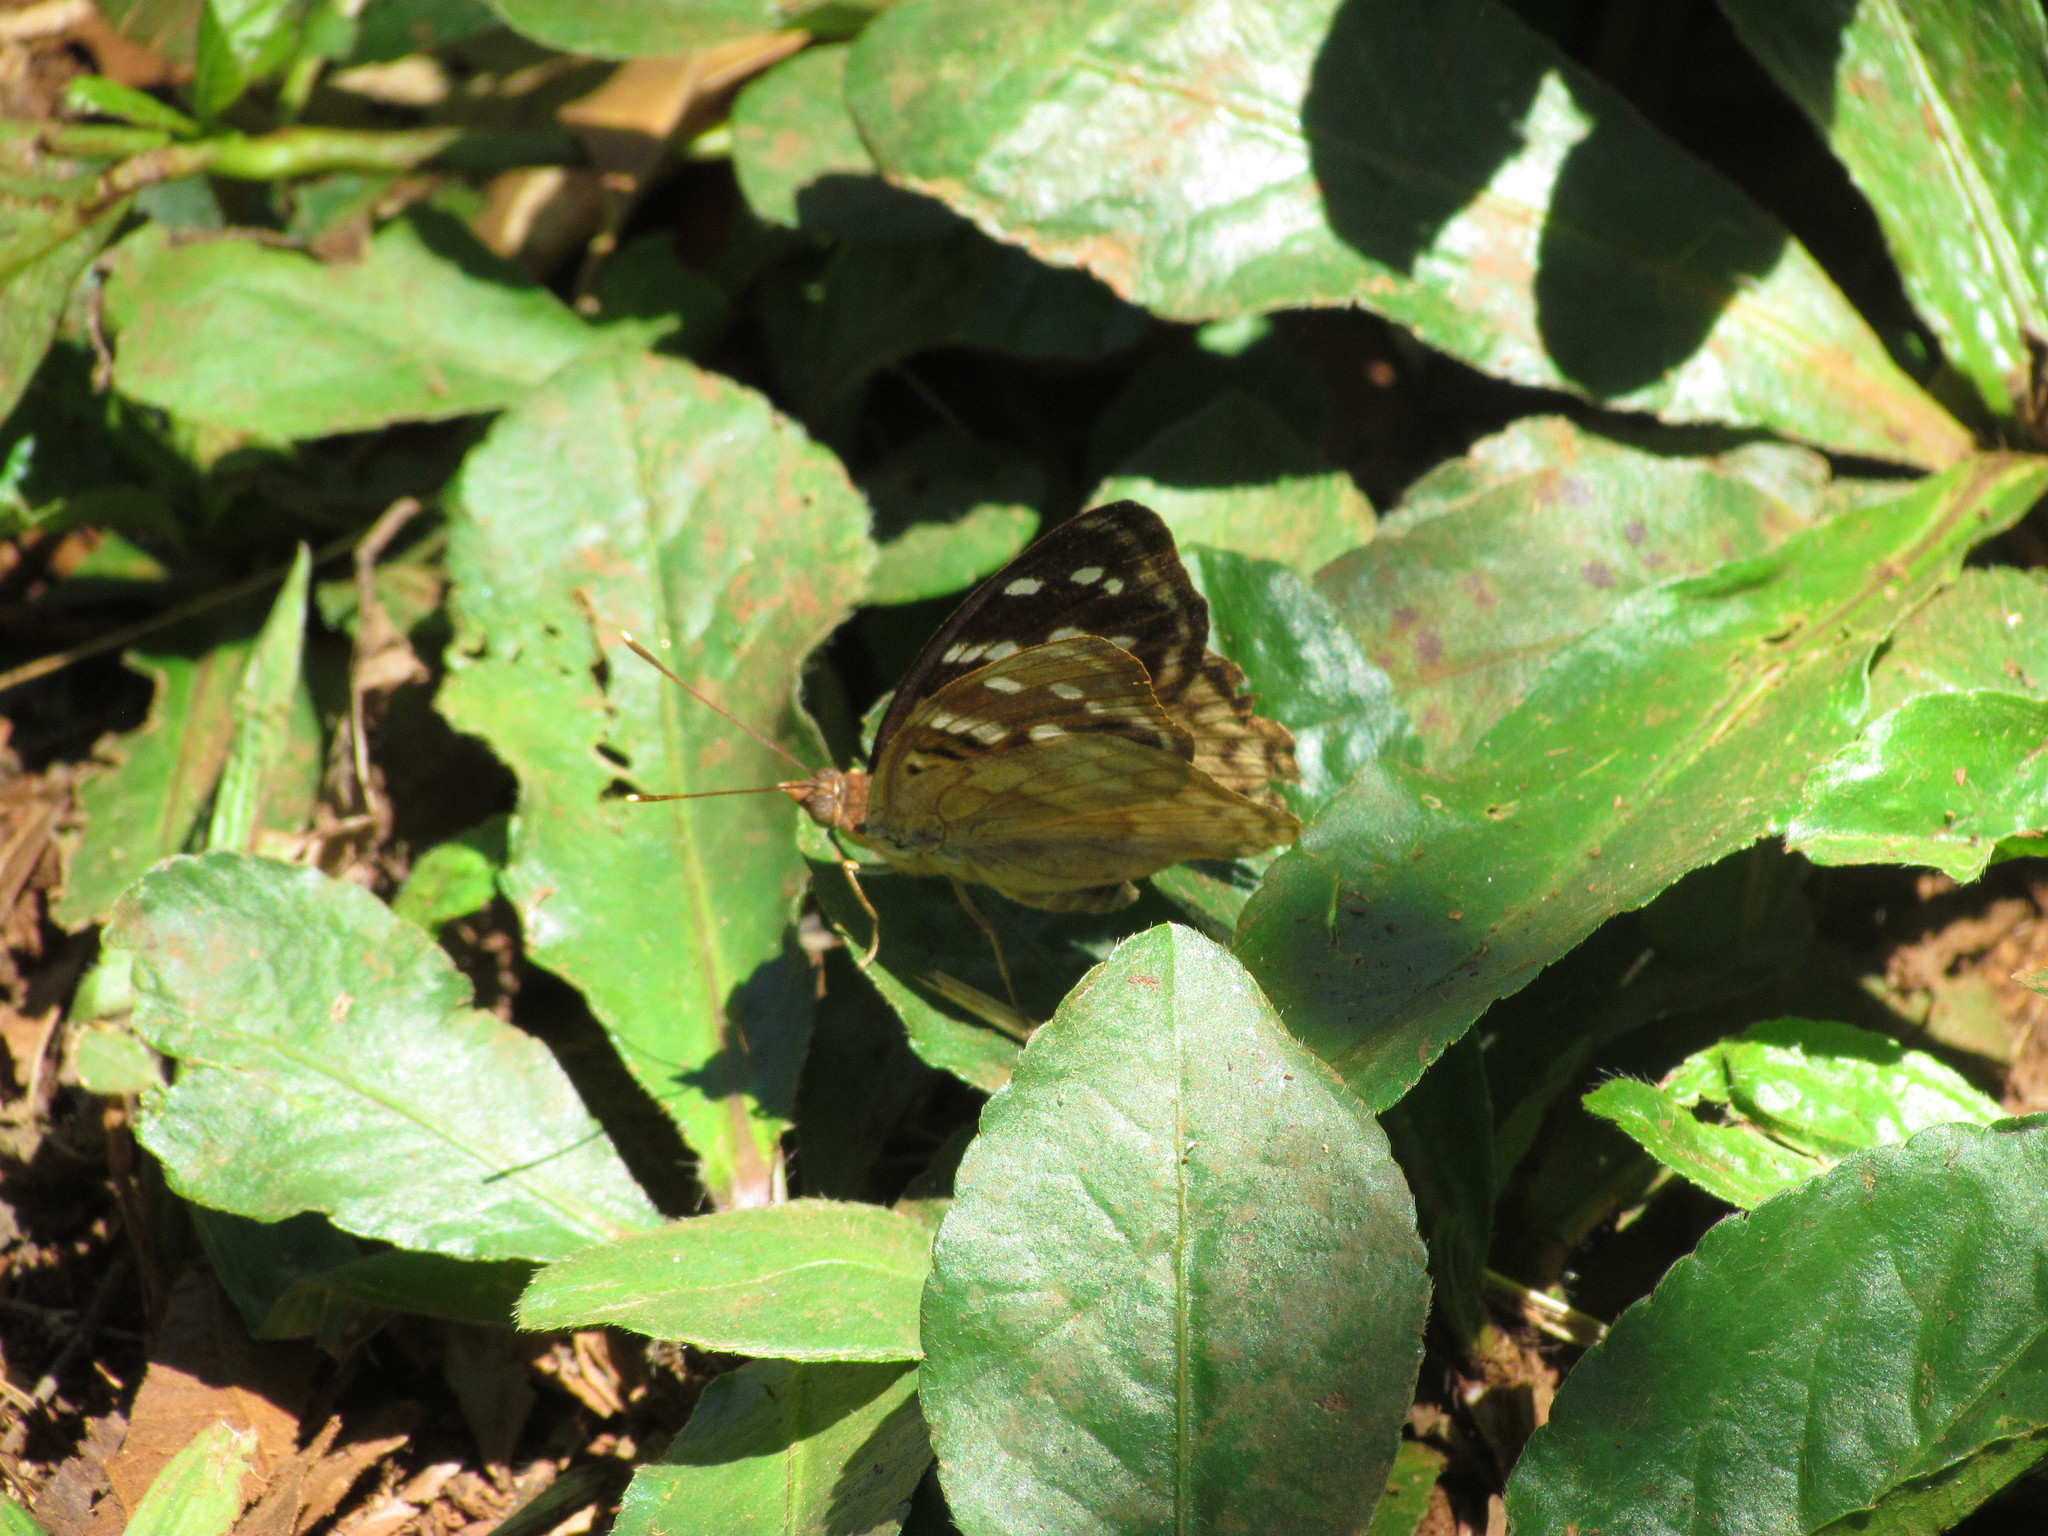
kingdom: Animalia
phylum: Arthropoda
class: Insecta
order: Lepidoptera
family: Nymphalidae
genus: Doxocopa
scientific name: Doxocopa kallina
